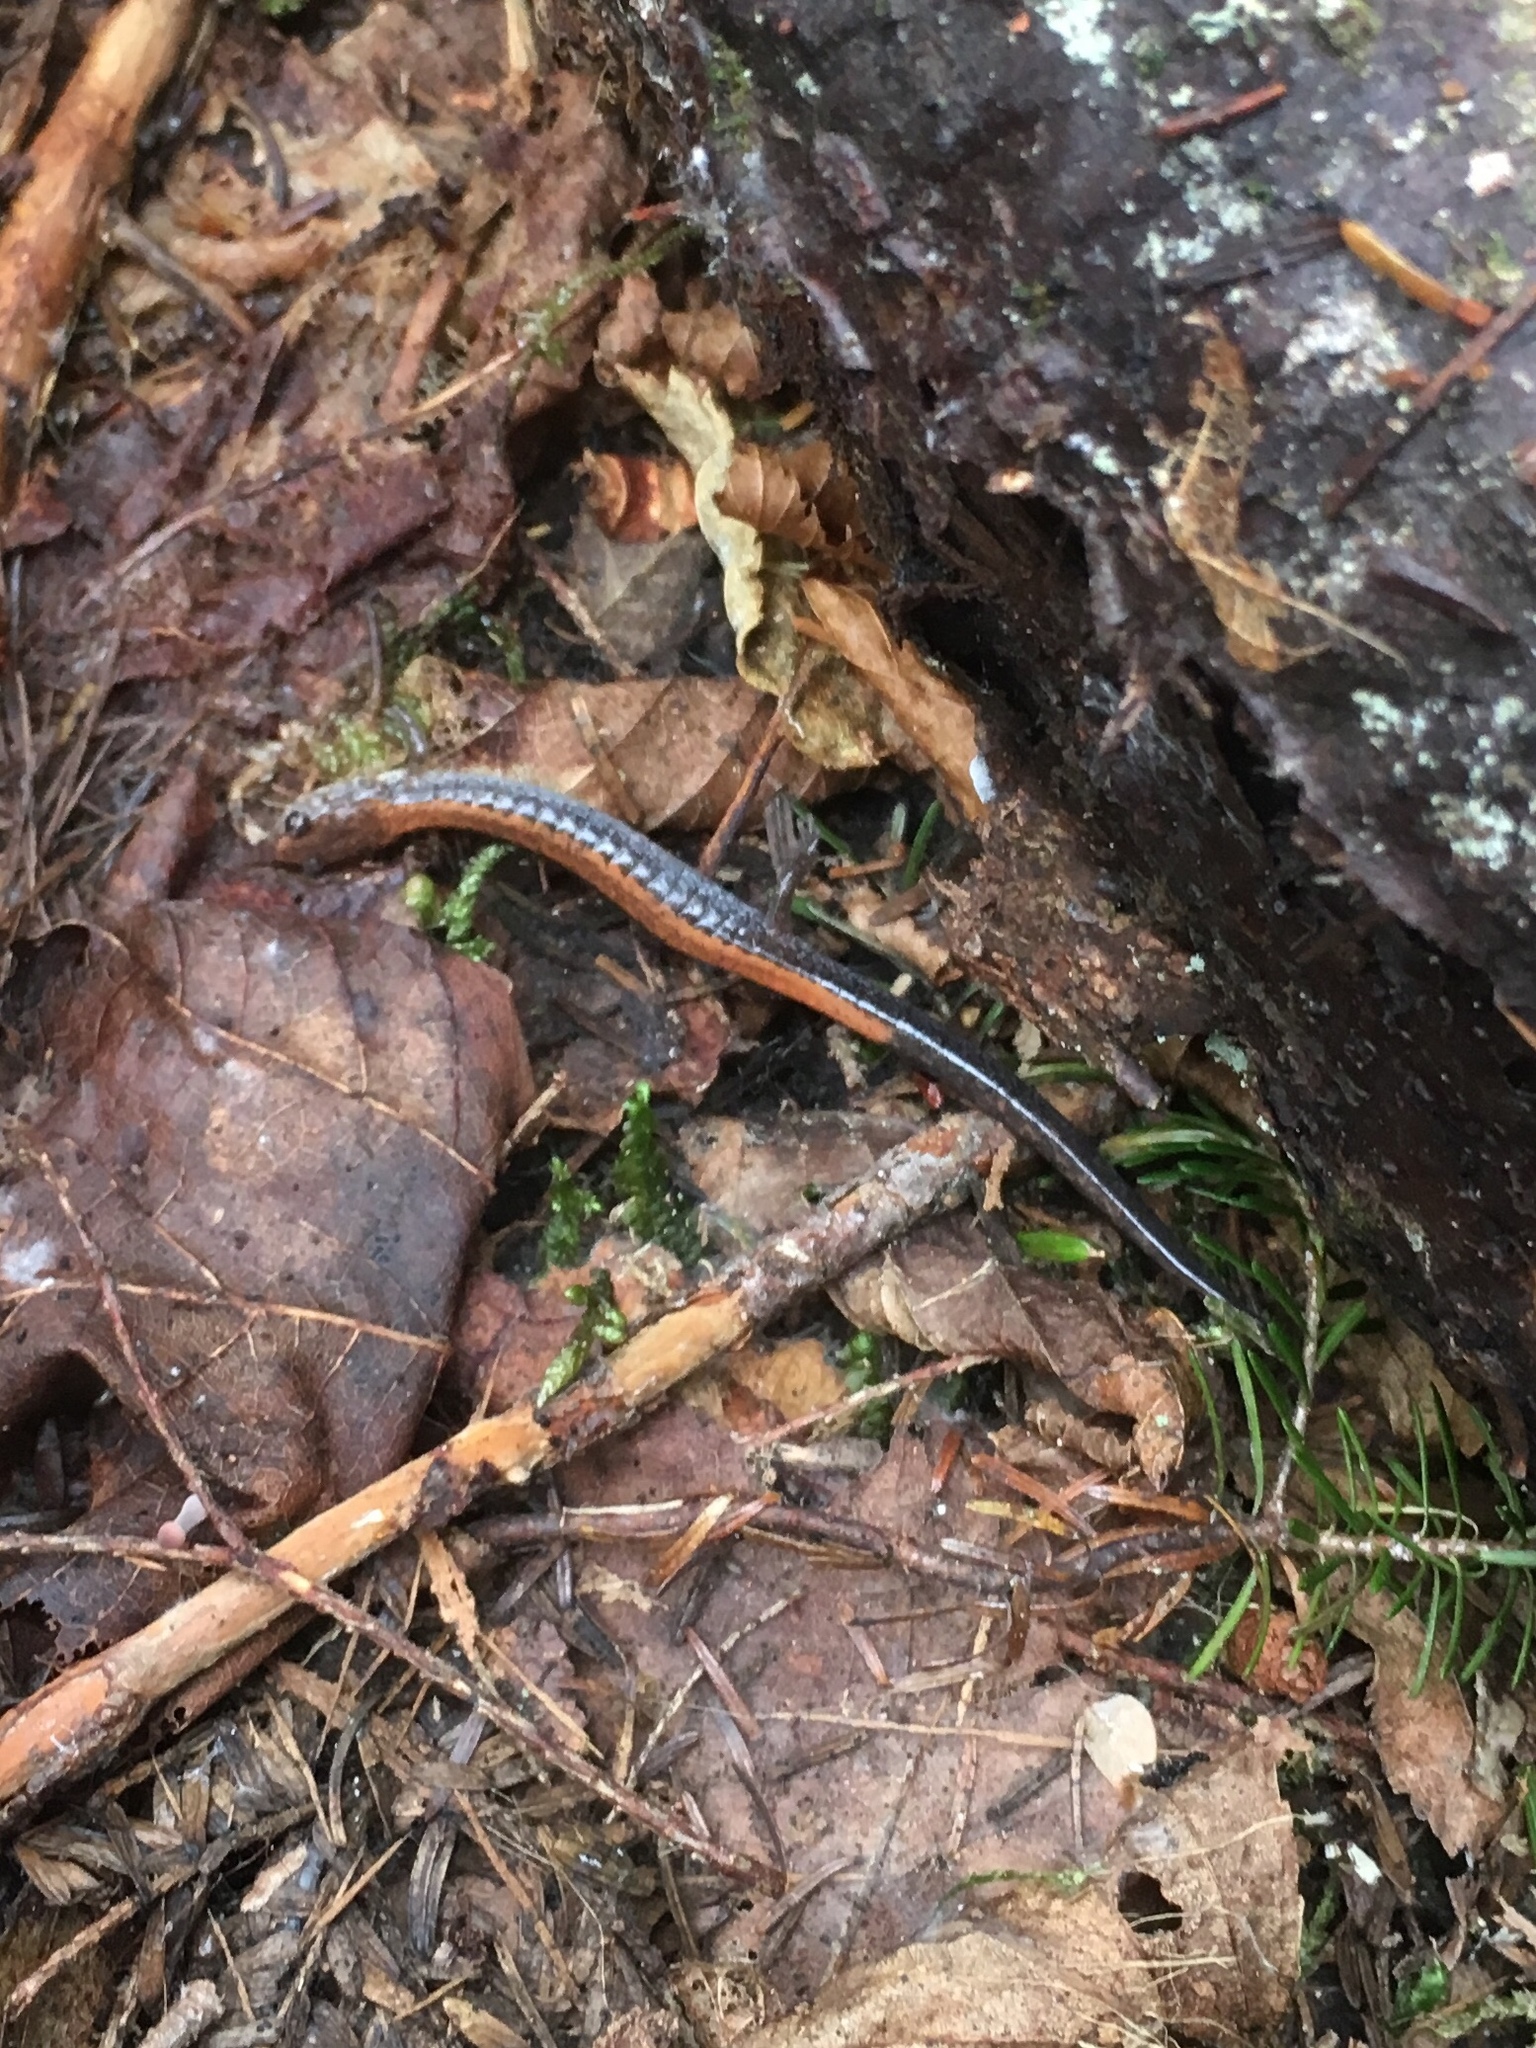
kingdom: Animalia
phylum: Chordata
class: Amphibia
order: Caudata
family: Plethodontidae
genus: Plethodon
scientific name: Plethodon cinereus
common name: Redback salamander
